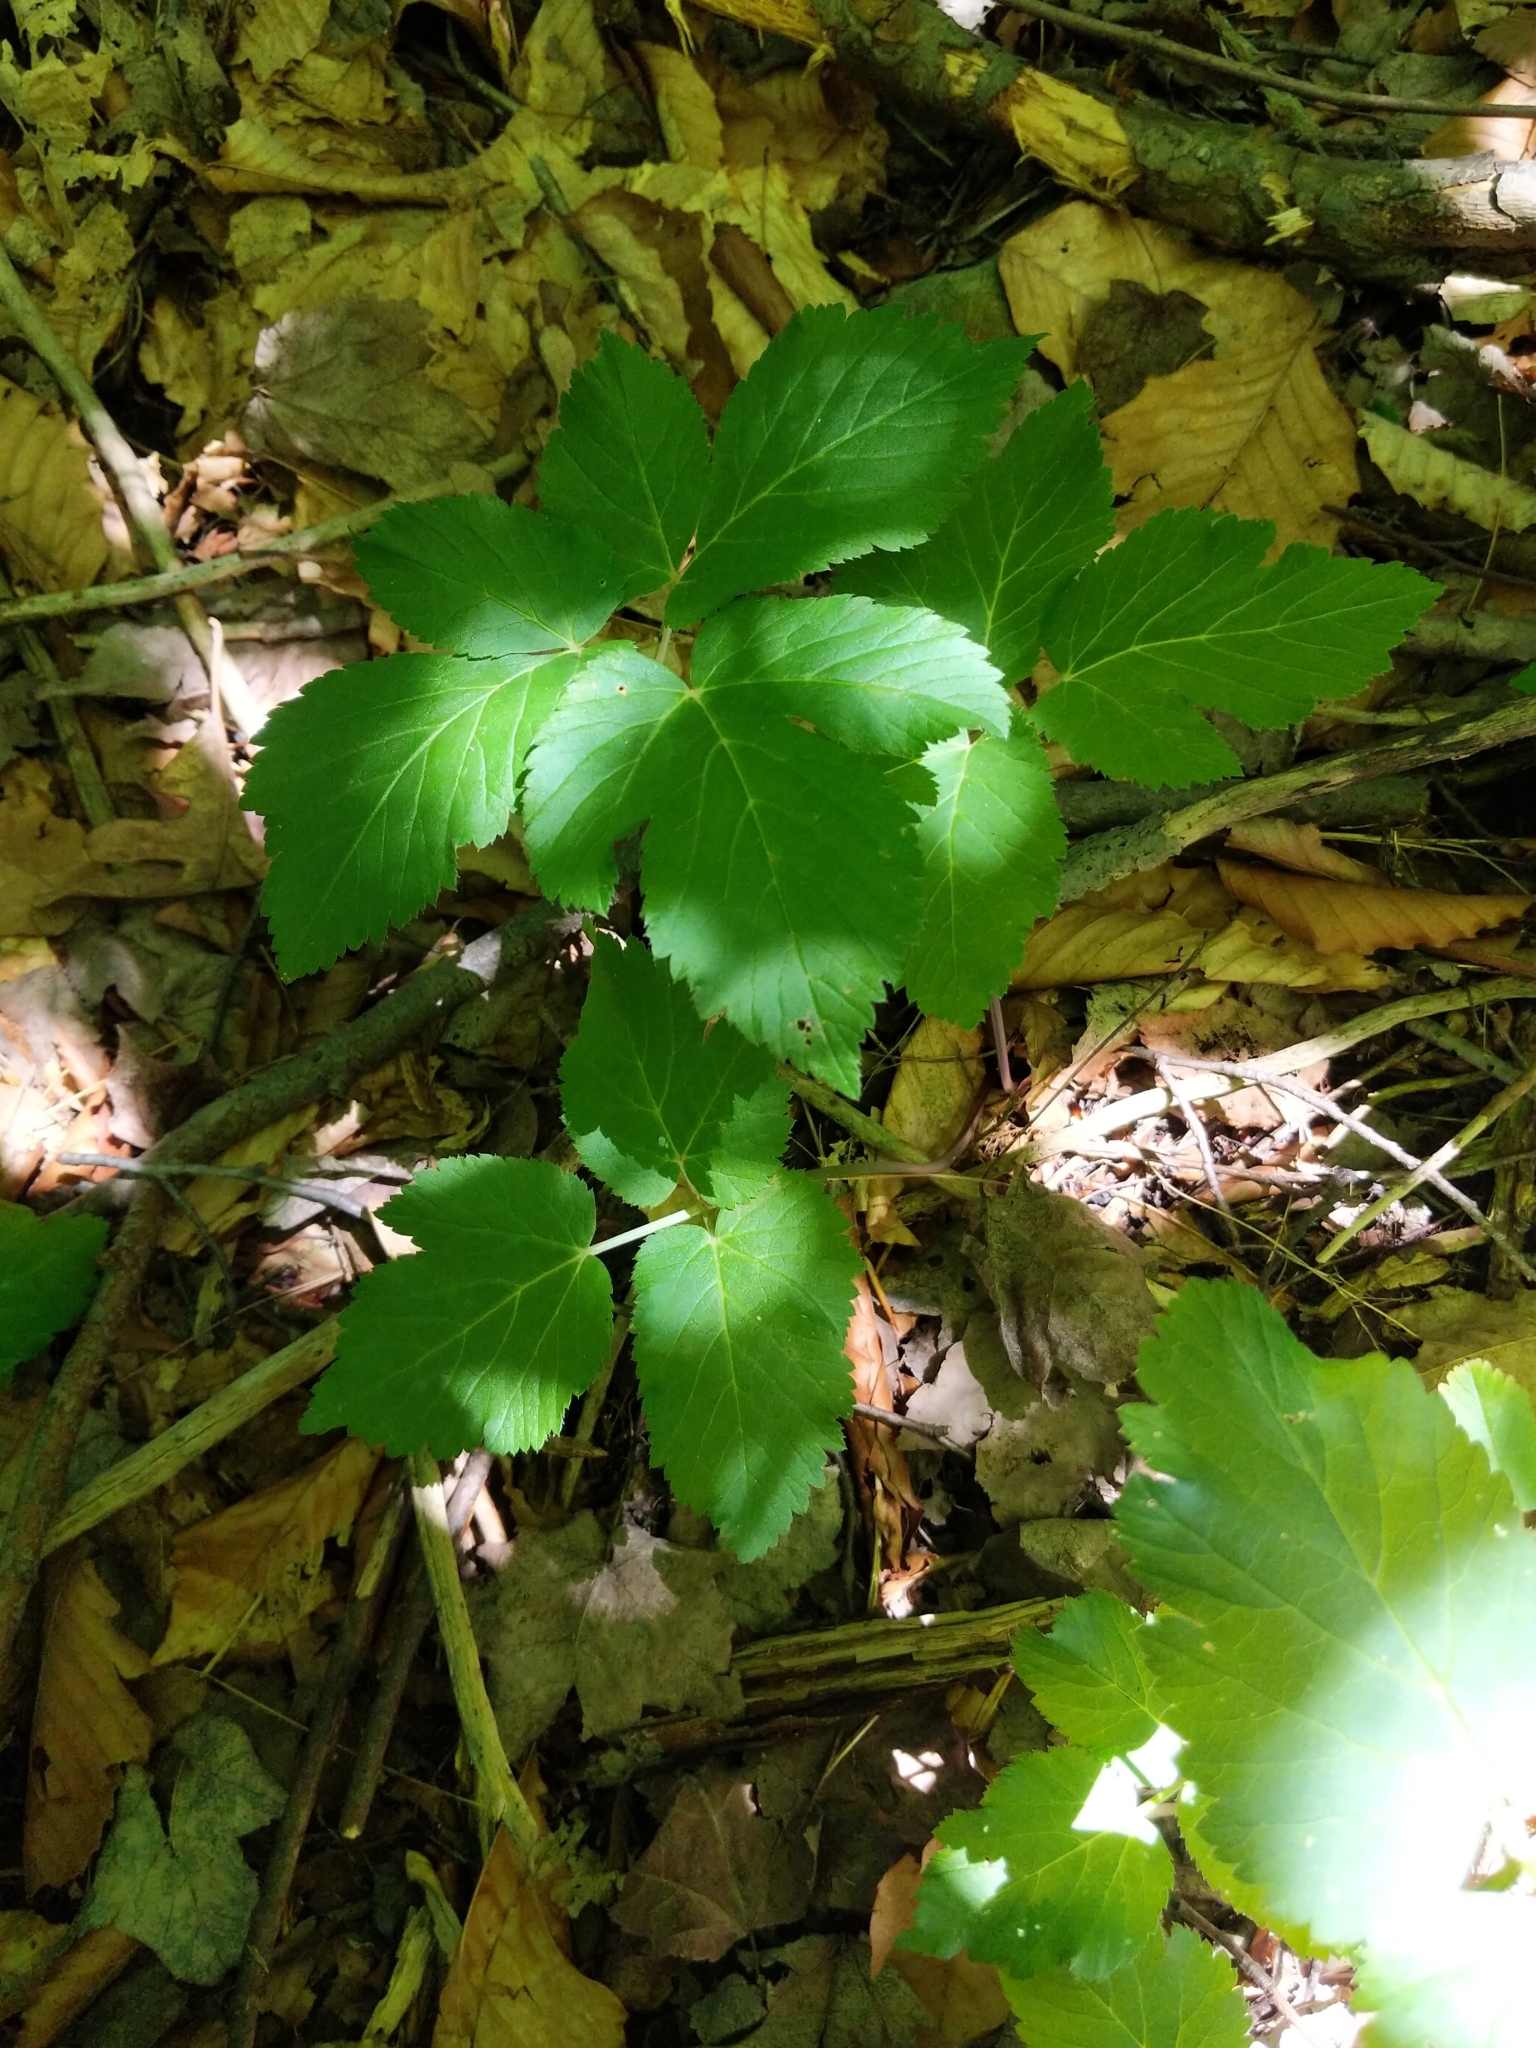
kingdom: Plantae
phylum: Tracheophyta
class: Magnoliopsida
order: Apiales
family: Apiaceae
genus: Aegopodium
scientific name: Aegopodium podagraria
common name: Ground-elder
